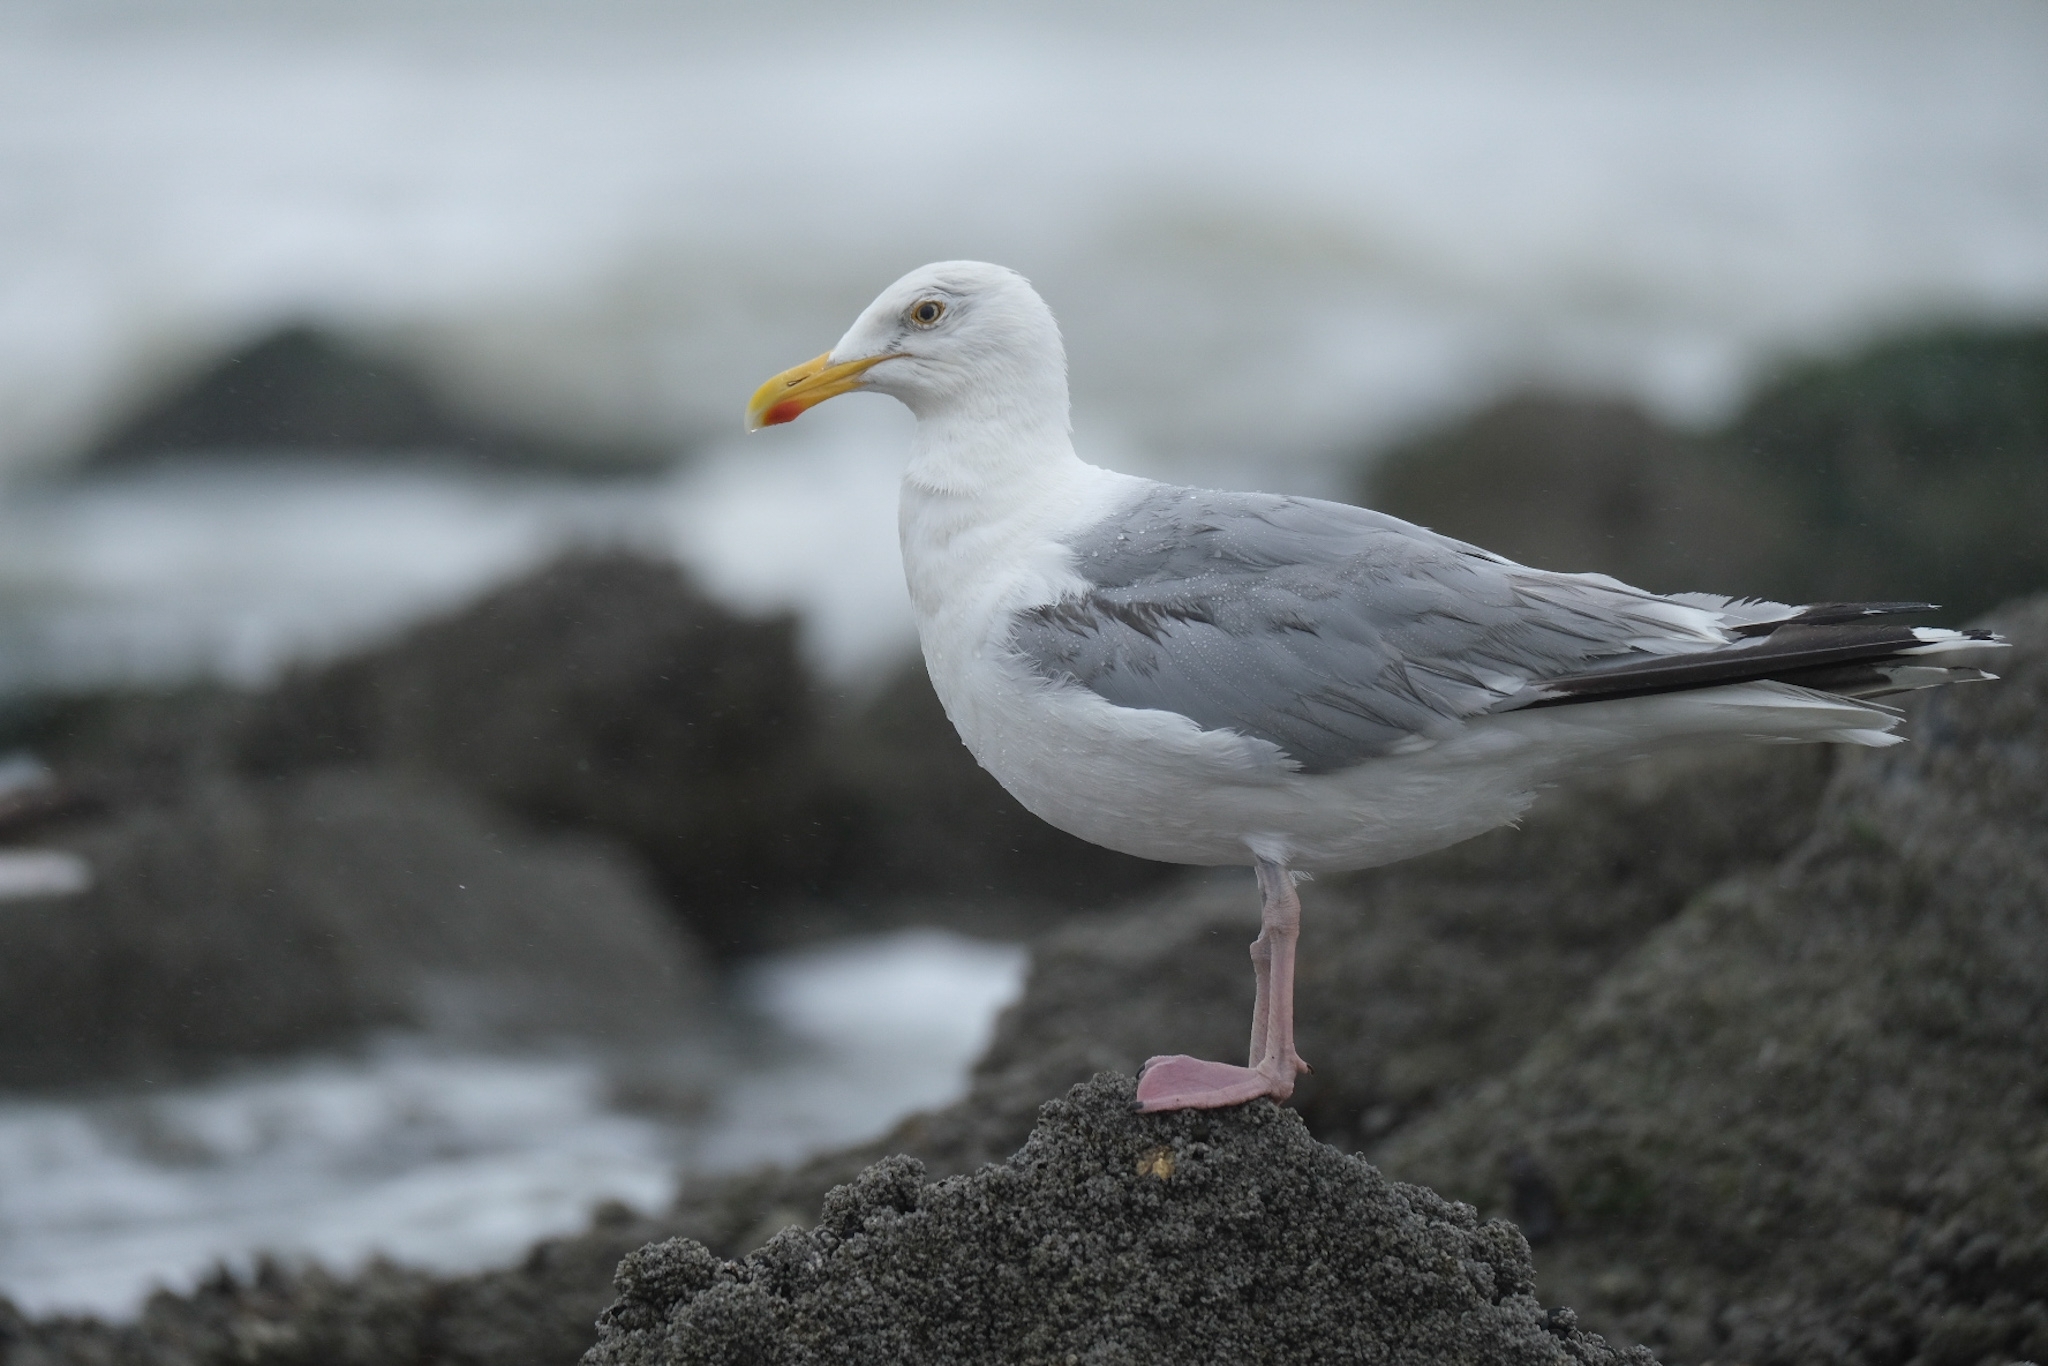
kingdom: Animalia
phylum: Chordata
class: Aves
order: Charadriiformes
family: Laridae
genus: Larus
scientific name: Larus argentatus
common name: Herring gull
